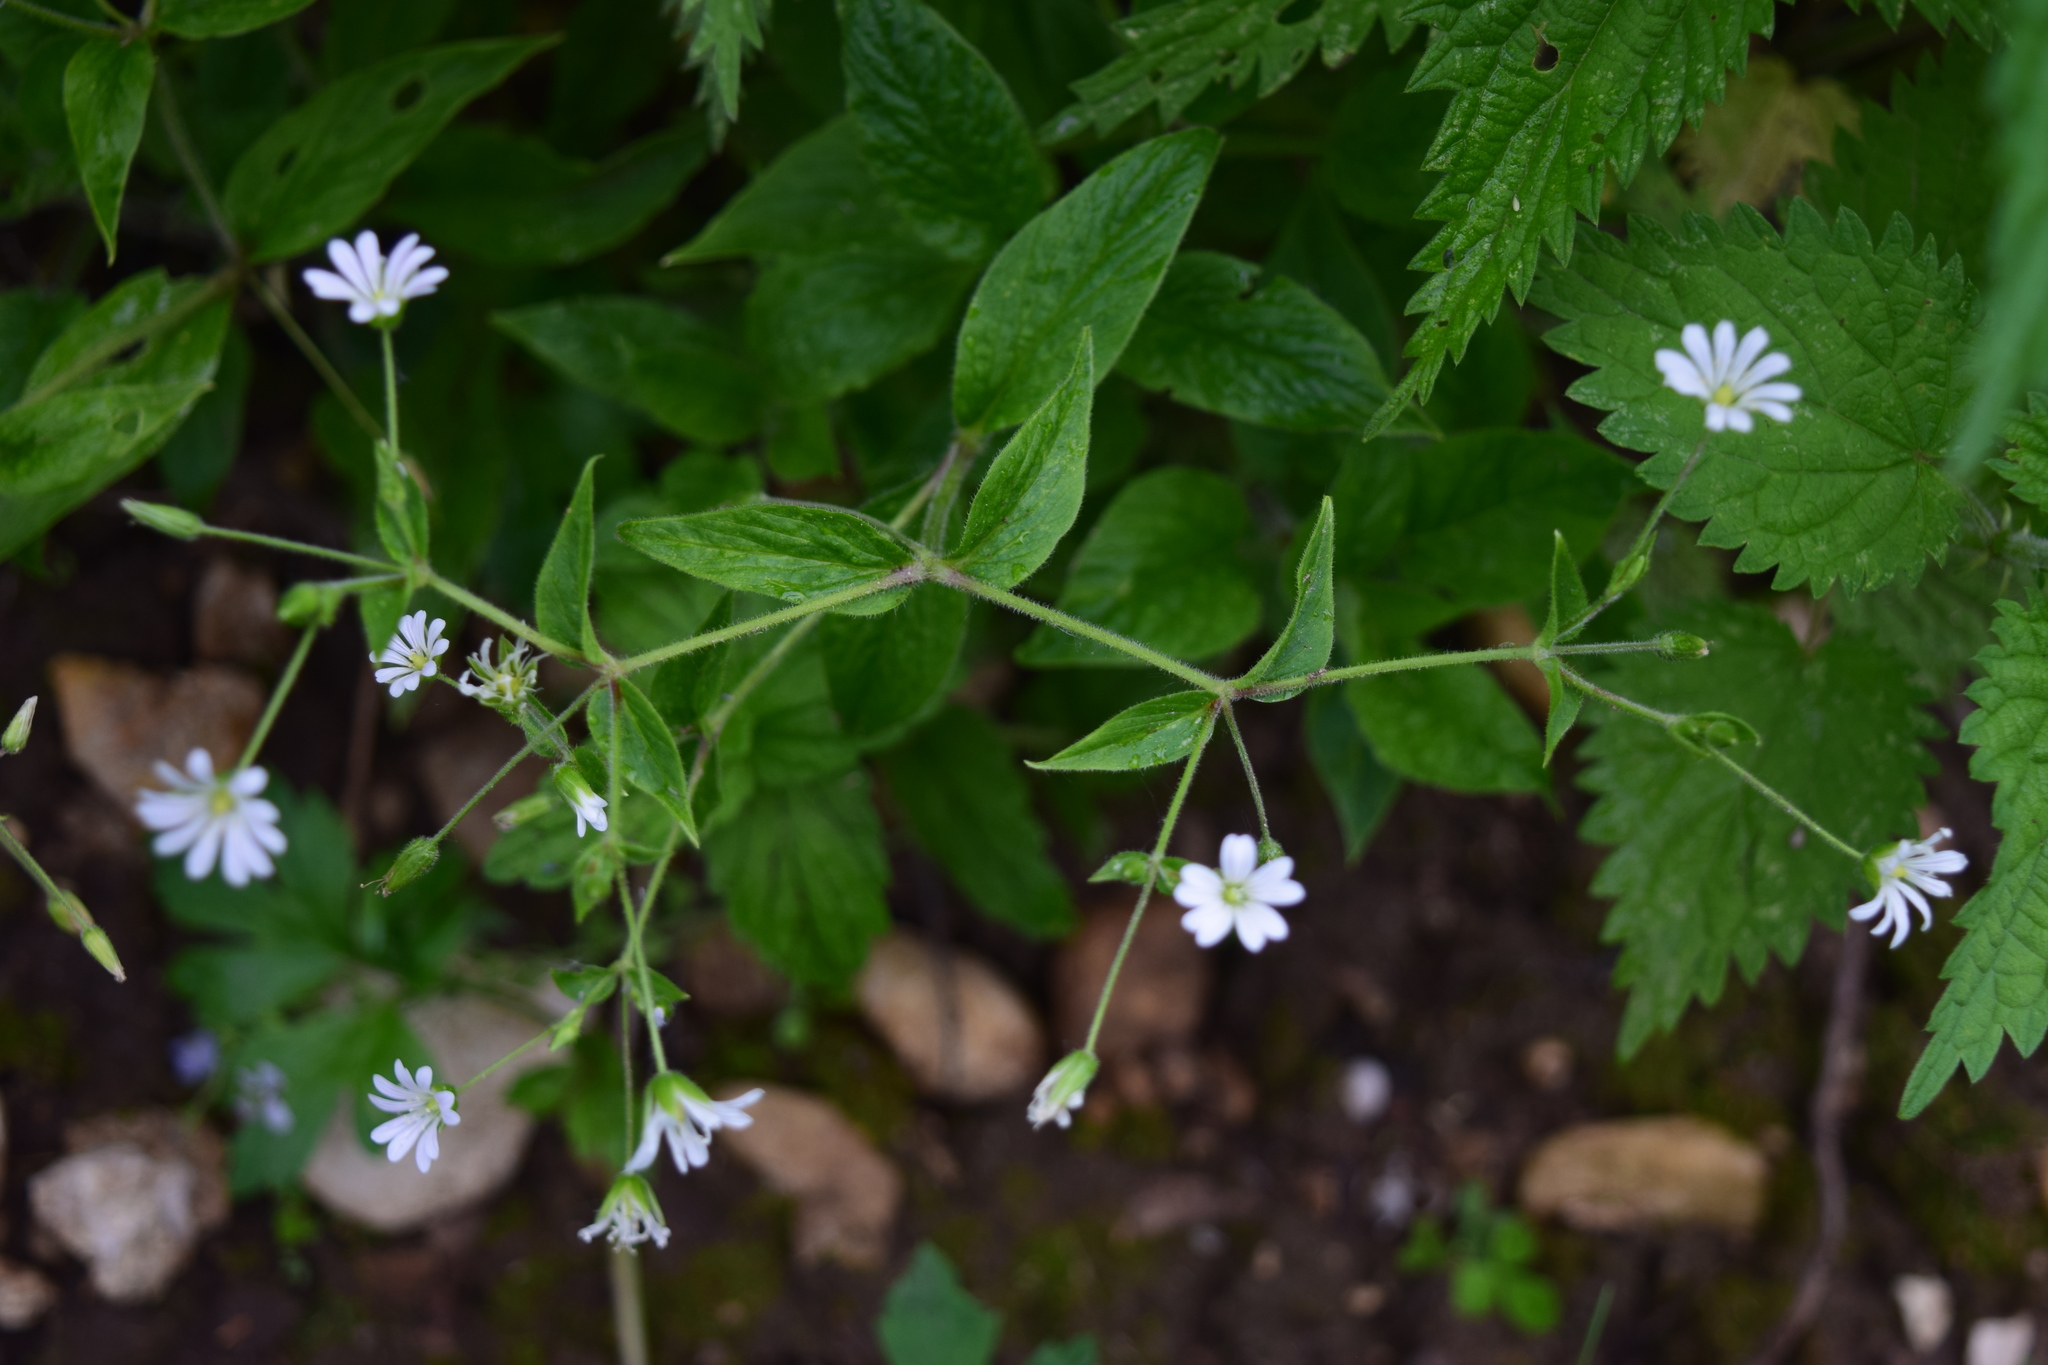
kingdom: Plantae
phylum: Tracheophyta
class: Magnoliopsida
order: Caryophyllales
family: Caryophyllaceae
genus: Stellaria
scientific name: Stellaria nemorum
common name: Wood stitchwort
